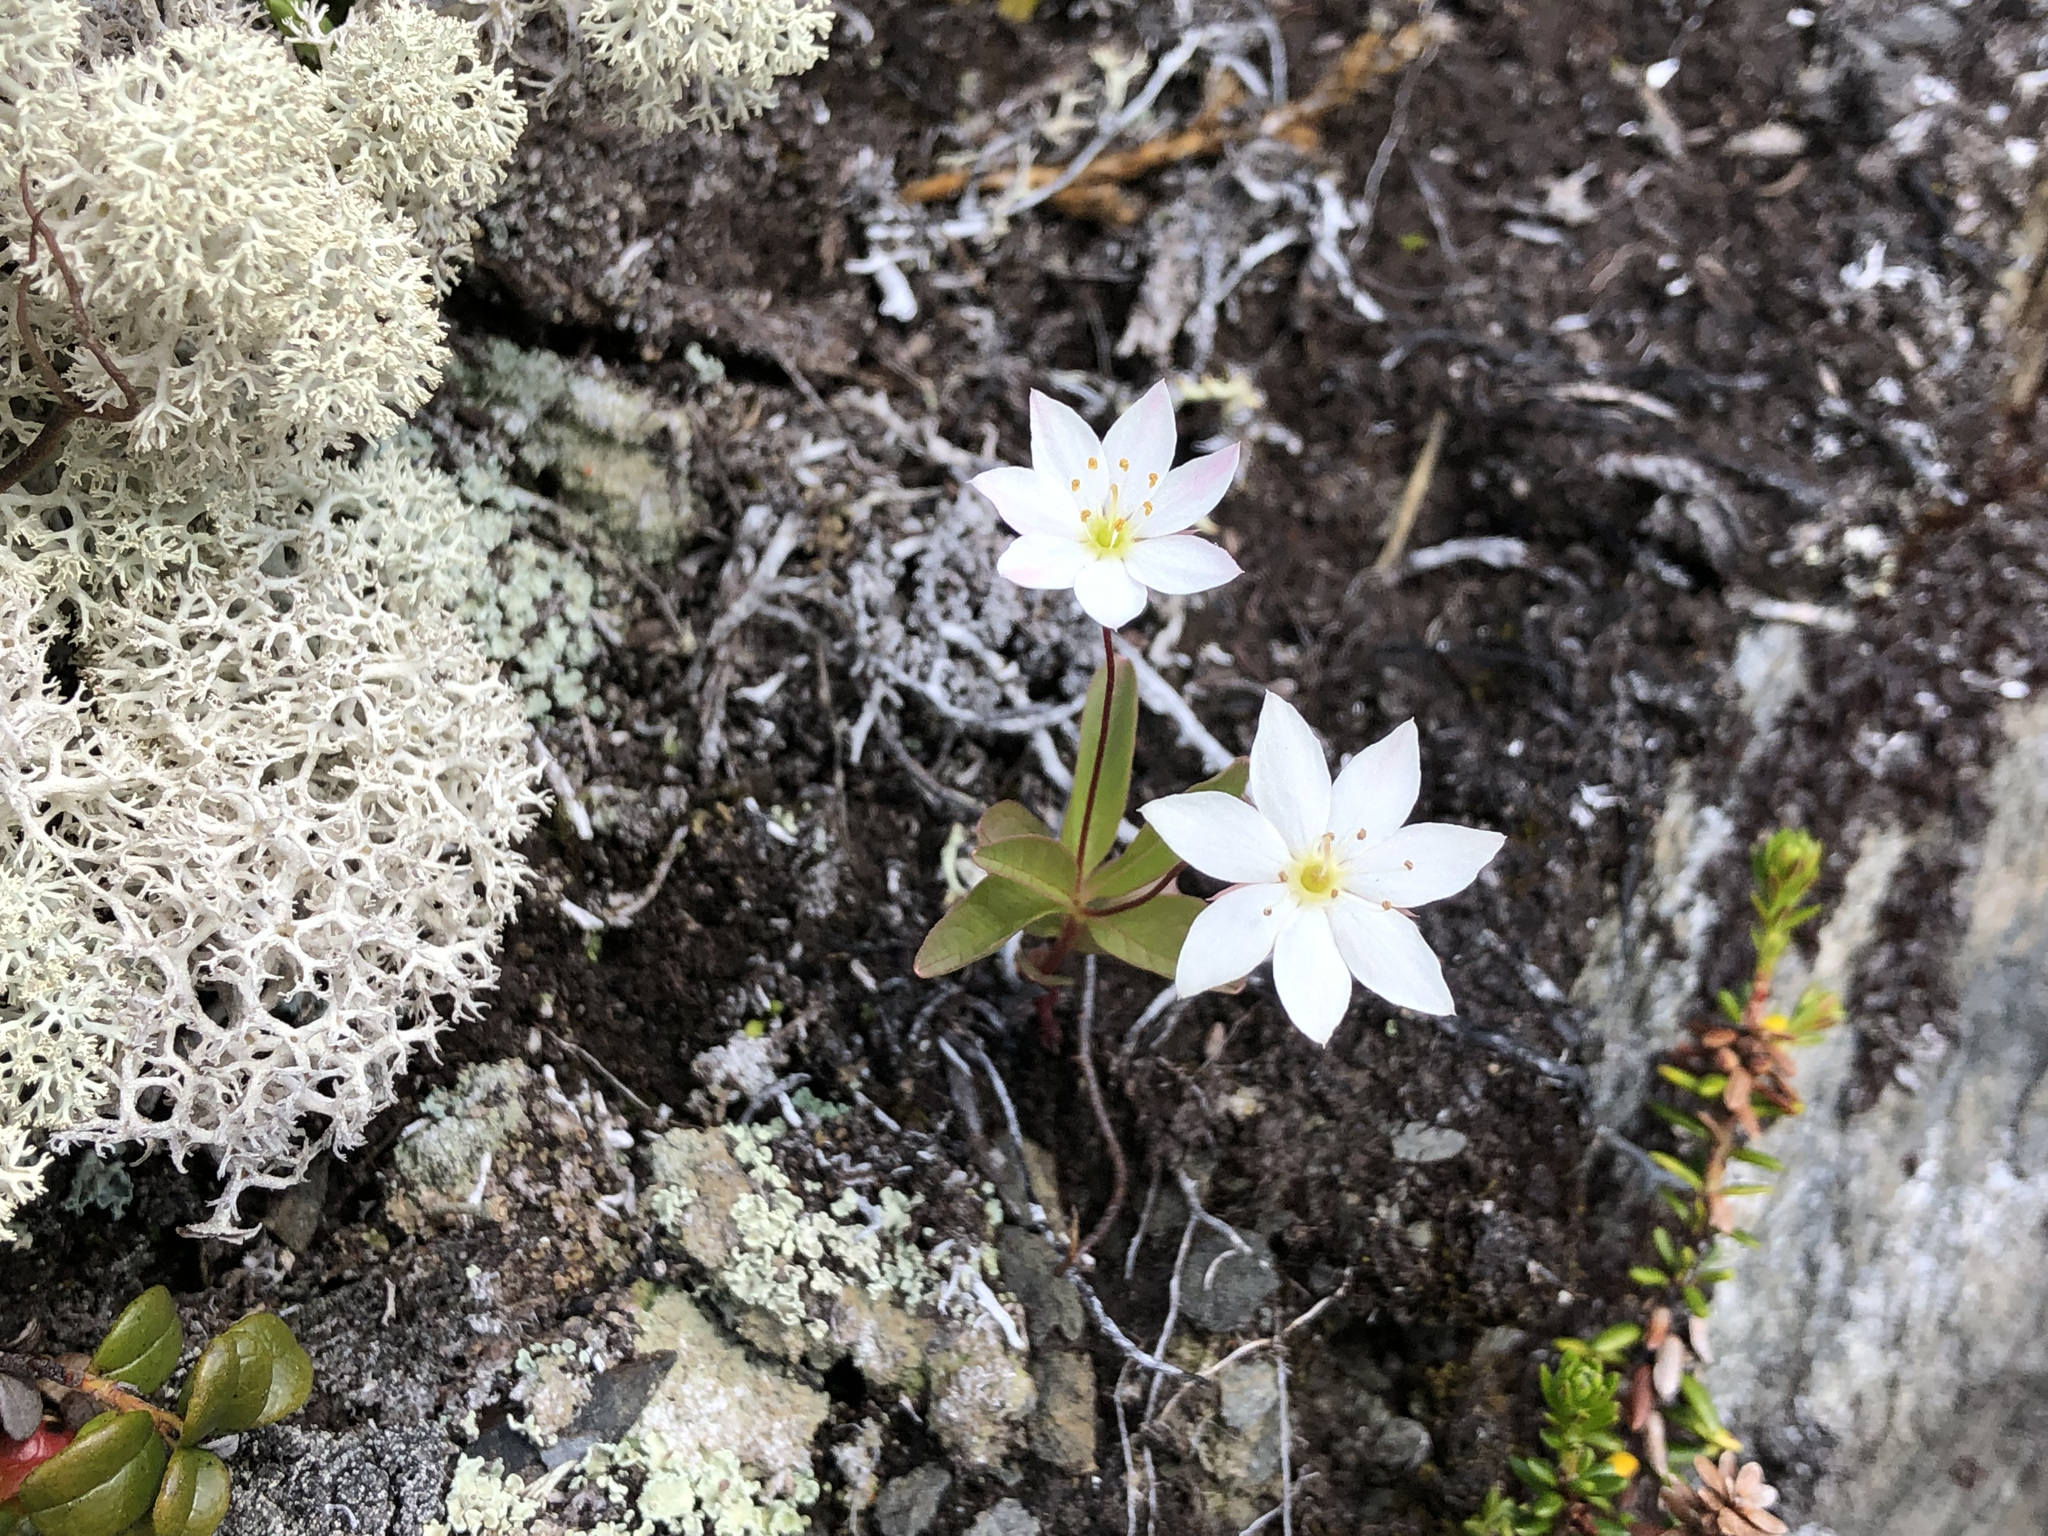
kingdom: Plantae
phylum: Tracheophyta
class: Magnoliopsida
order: Ericales
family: Primulaceae
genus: Lysimachia
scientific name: Lysimachia europaea
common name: Arctic starflower
